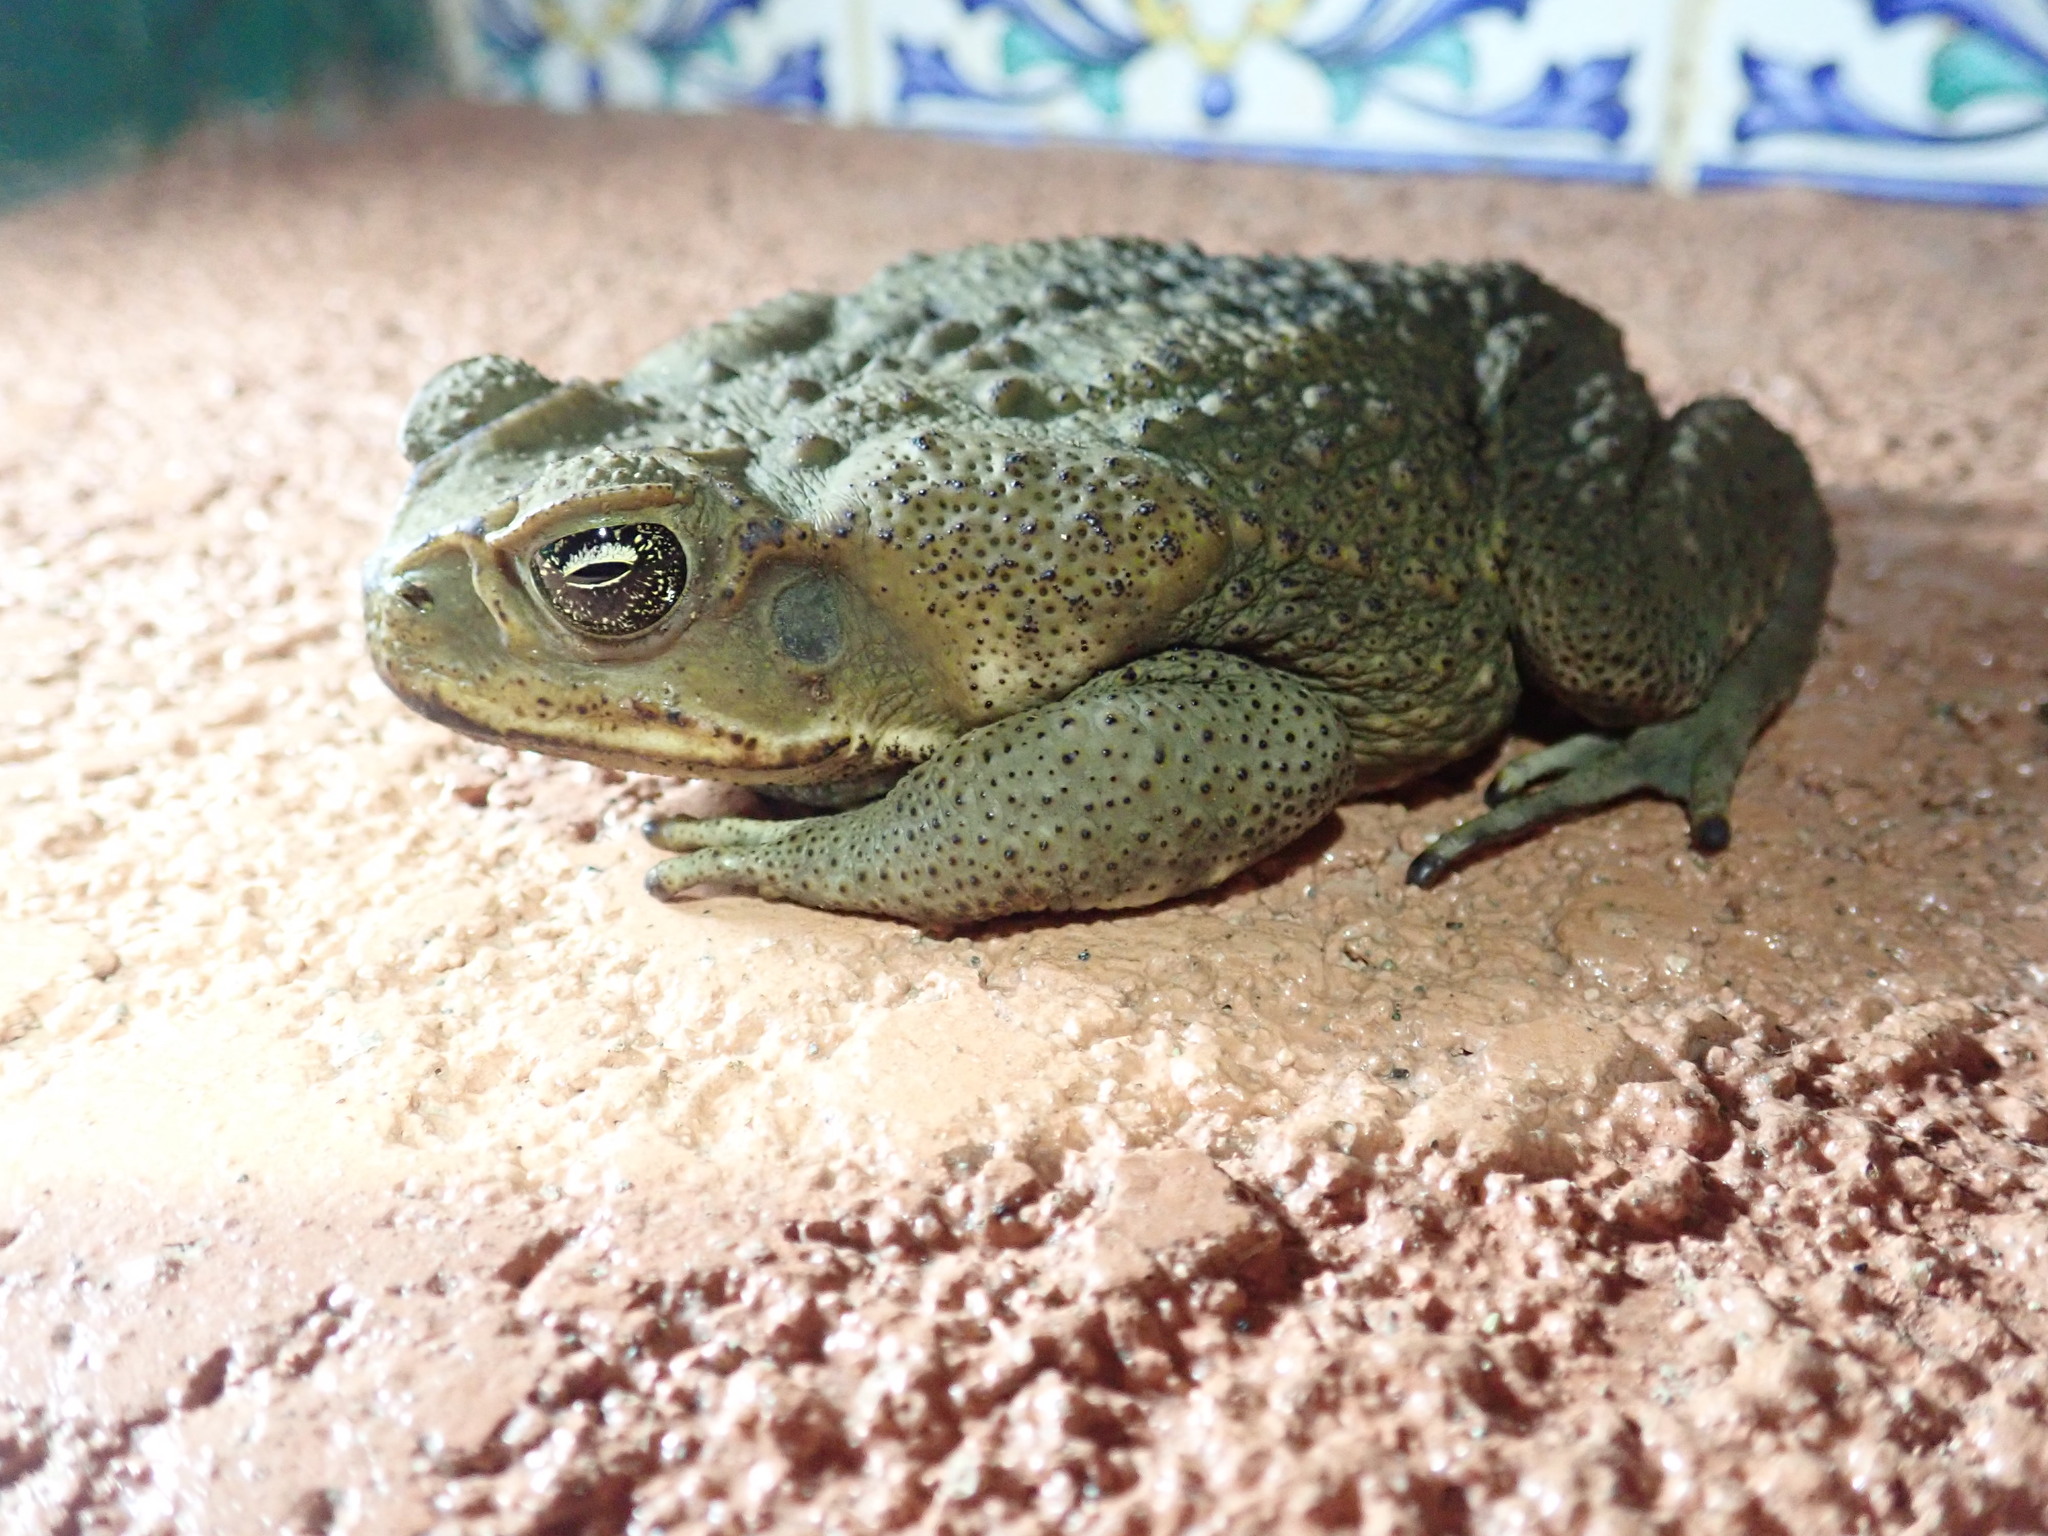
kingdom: Animalia
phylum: Chordata
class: Amphibia
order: Anura
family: Bufonidae
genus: Rhinella
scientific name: Rhinella horribilis
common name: Mesoamerican cane toad
